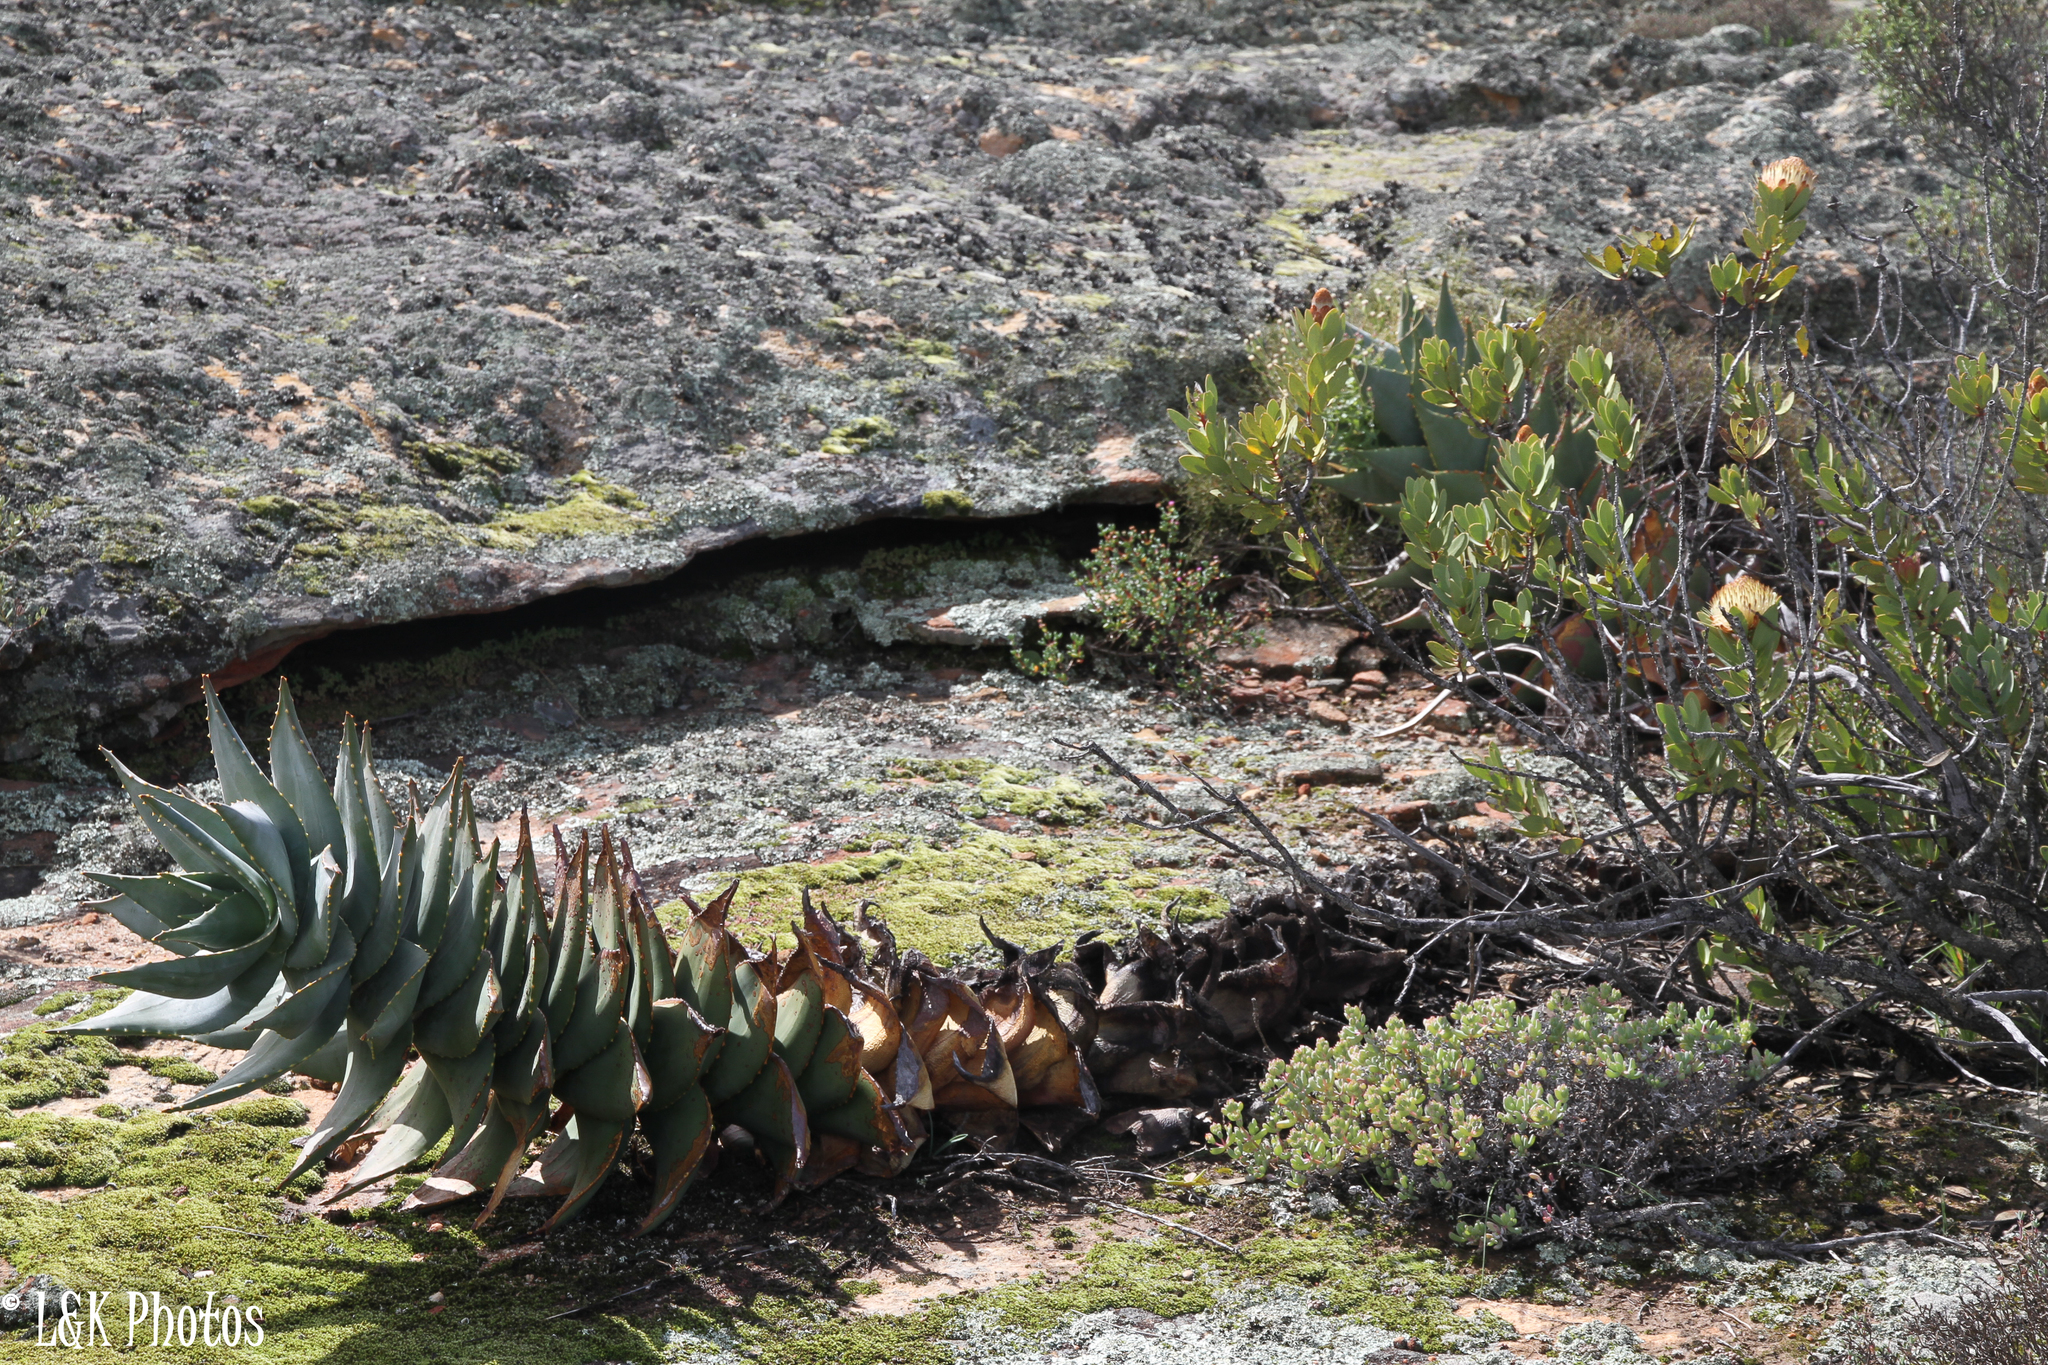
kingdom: Plantae
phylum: Tracheophyta
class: Liliopsida
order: Asparagales
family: Asphodelaceae
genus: Aloe
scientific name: Aloe perfoliata
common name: Mitra aloe
